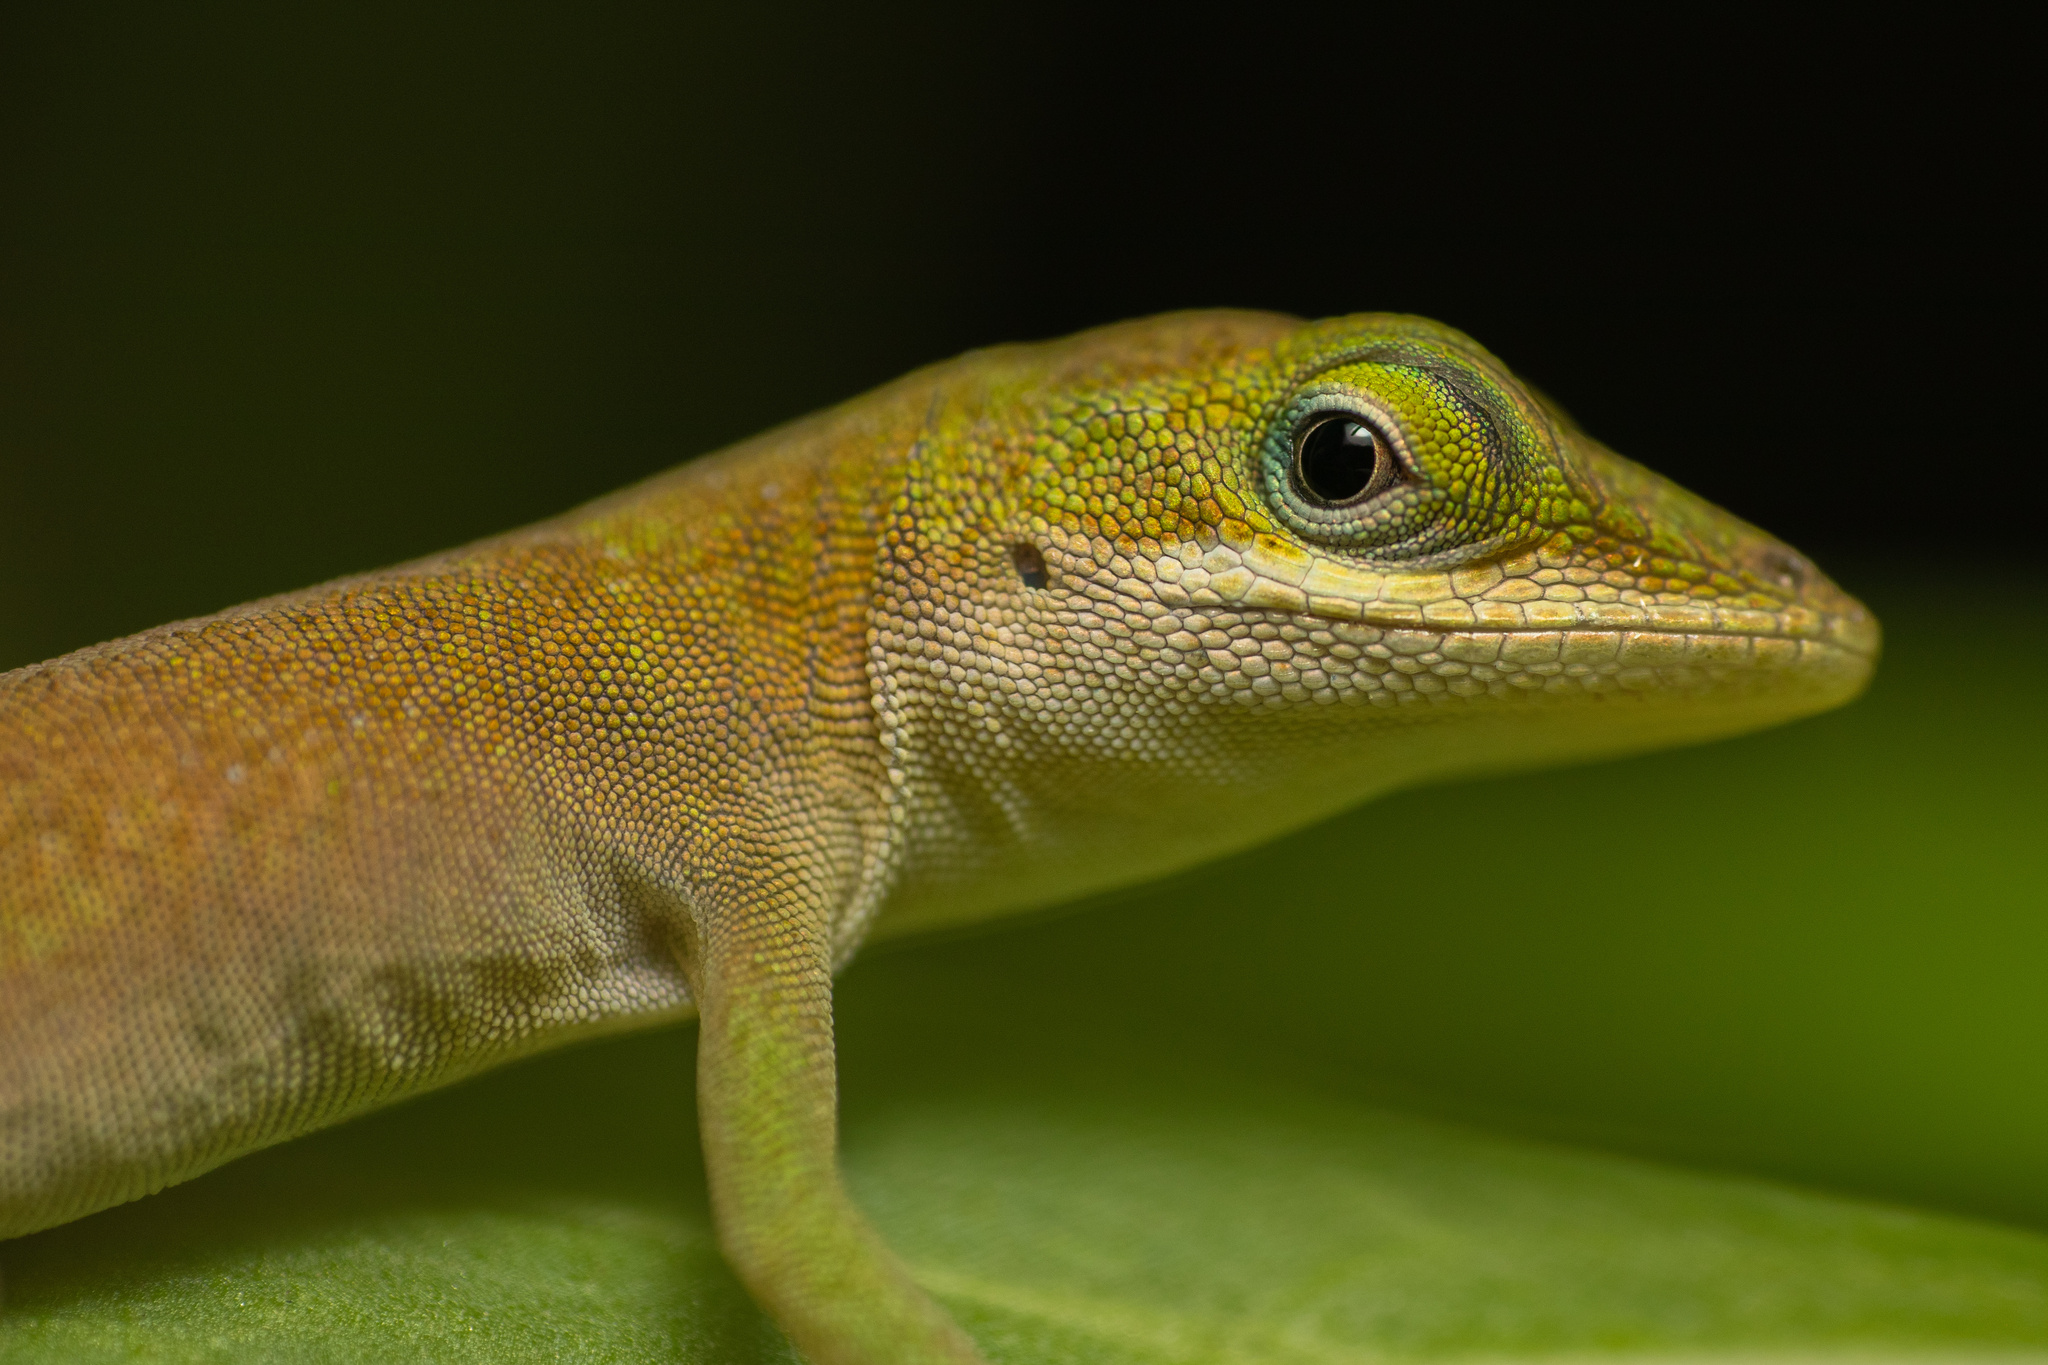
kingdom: Animalia
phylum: Chordata
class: Squamata
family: Dactyloidae
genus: Anolis
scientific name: Anolis carolinensis
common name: Green anole
